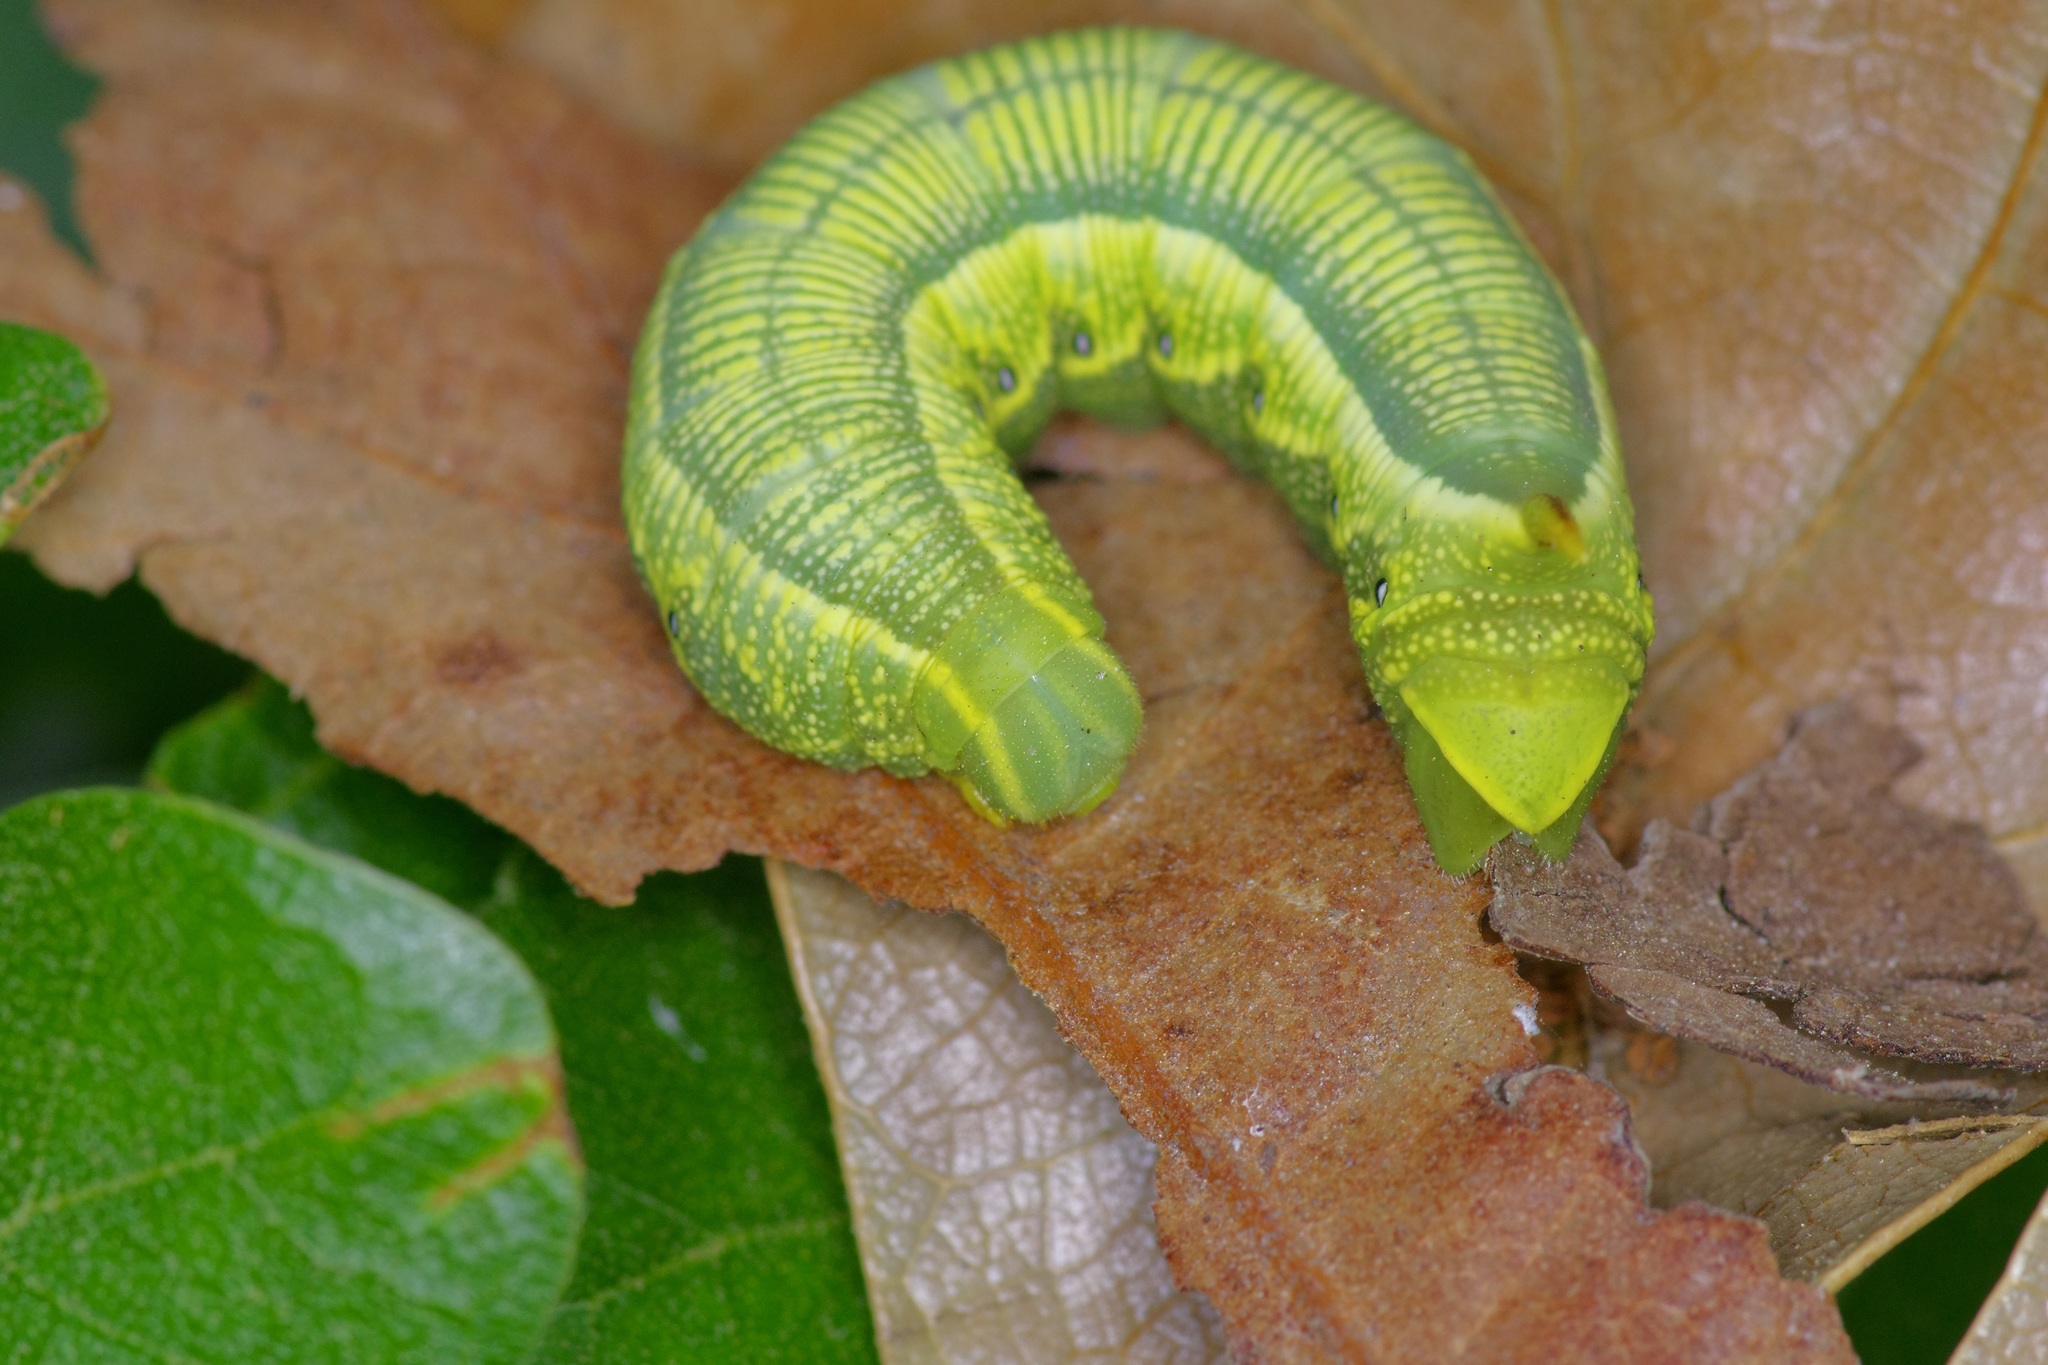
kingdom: Animalia
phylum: Arthropoda
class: Insecta
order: Lepidoptera
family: Sphingidae
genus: Deidamia
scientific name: Deidamia inscriptum
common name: Lettered sphinx
